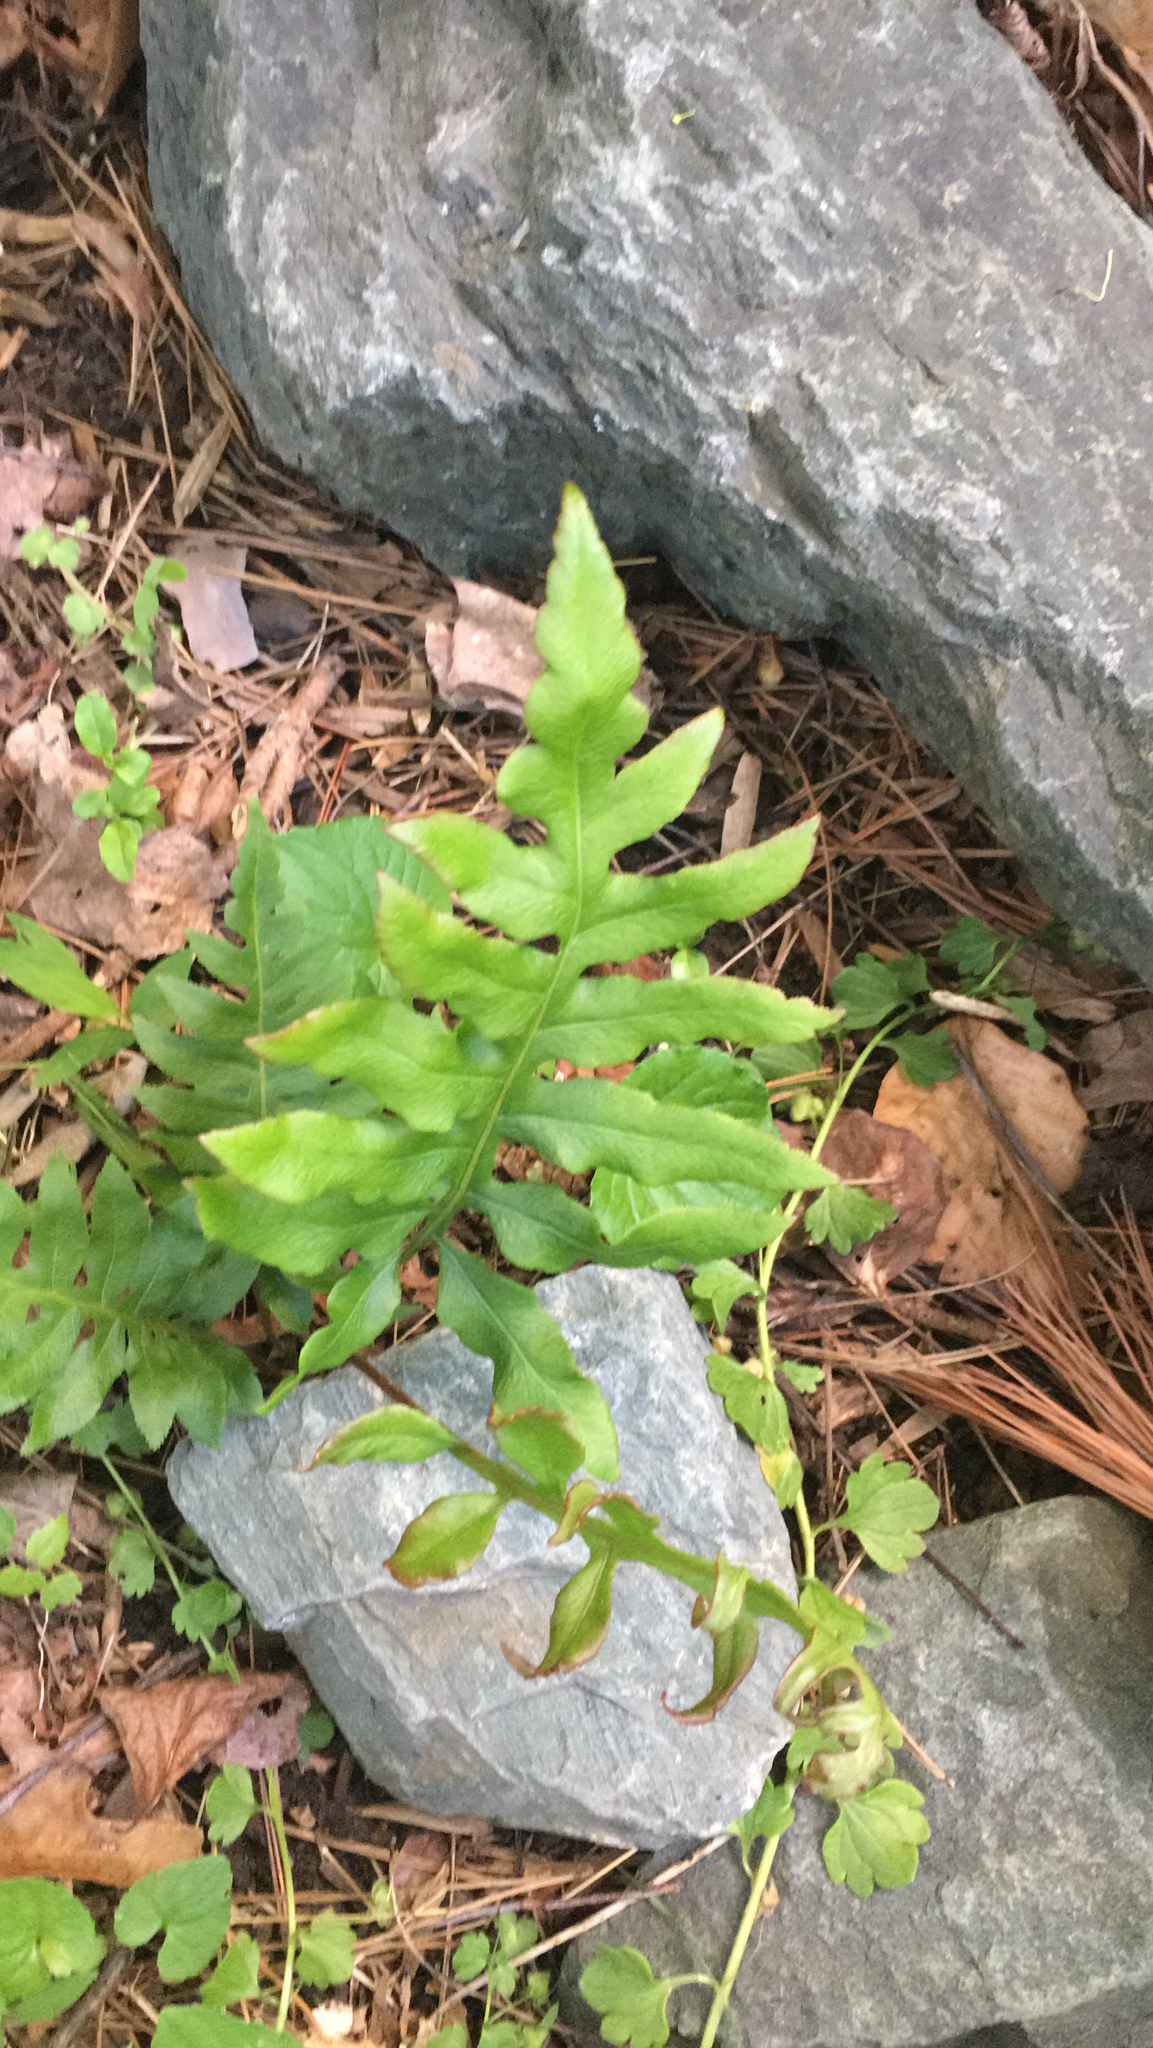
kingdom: Plantae
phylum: Tracheophyta
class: Polypodiopsida
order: Polypodiales
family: Blechnaceae
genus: Lorinseria
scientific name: Lorinseria areolata
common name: Dwarf chain fern
